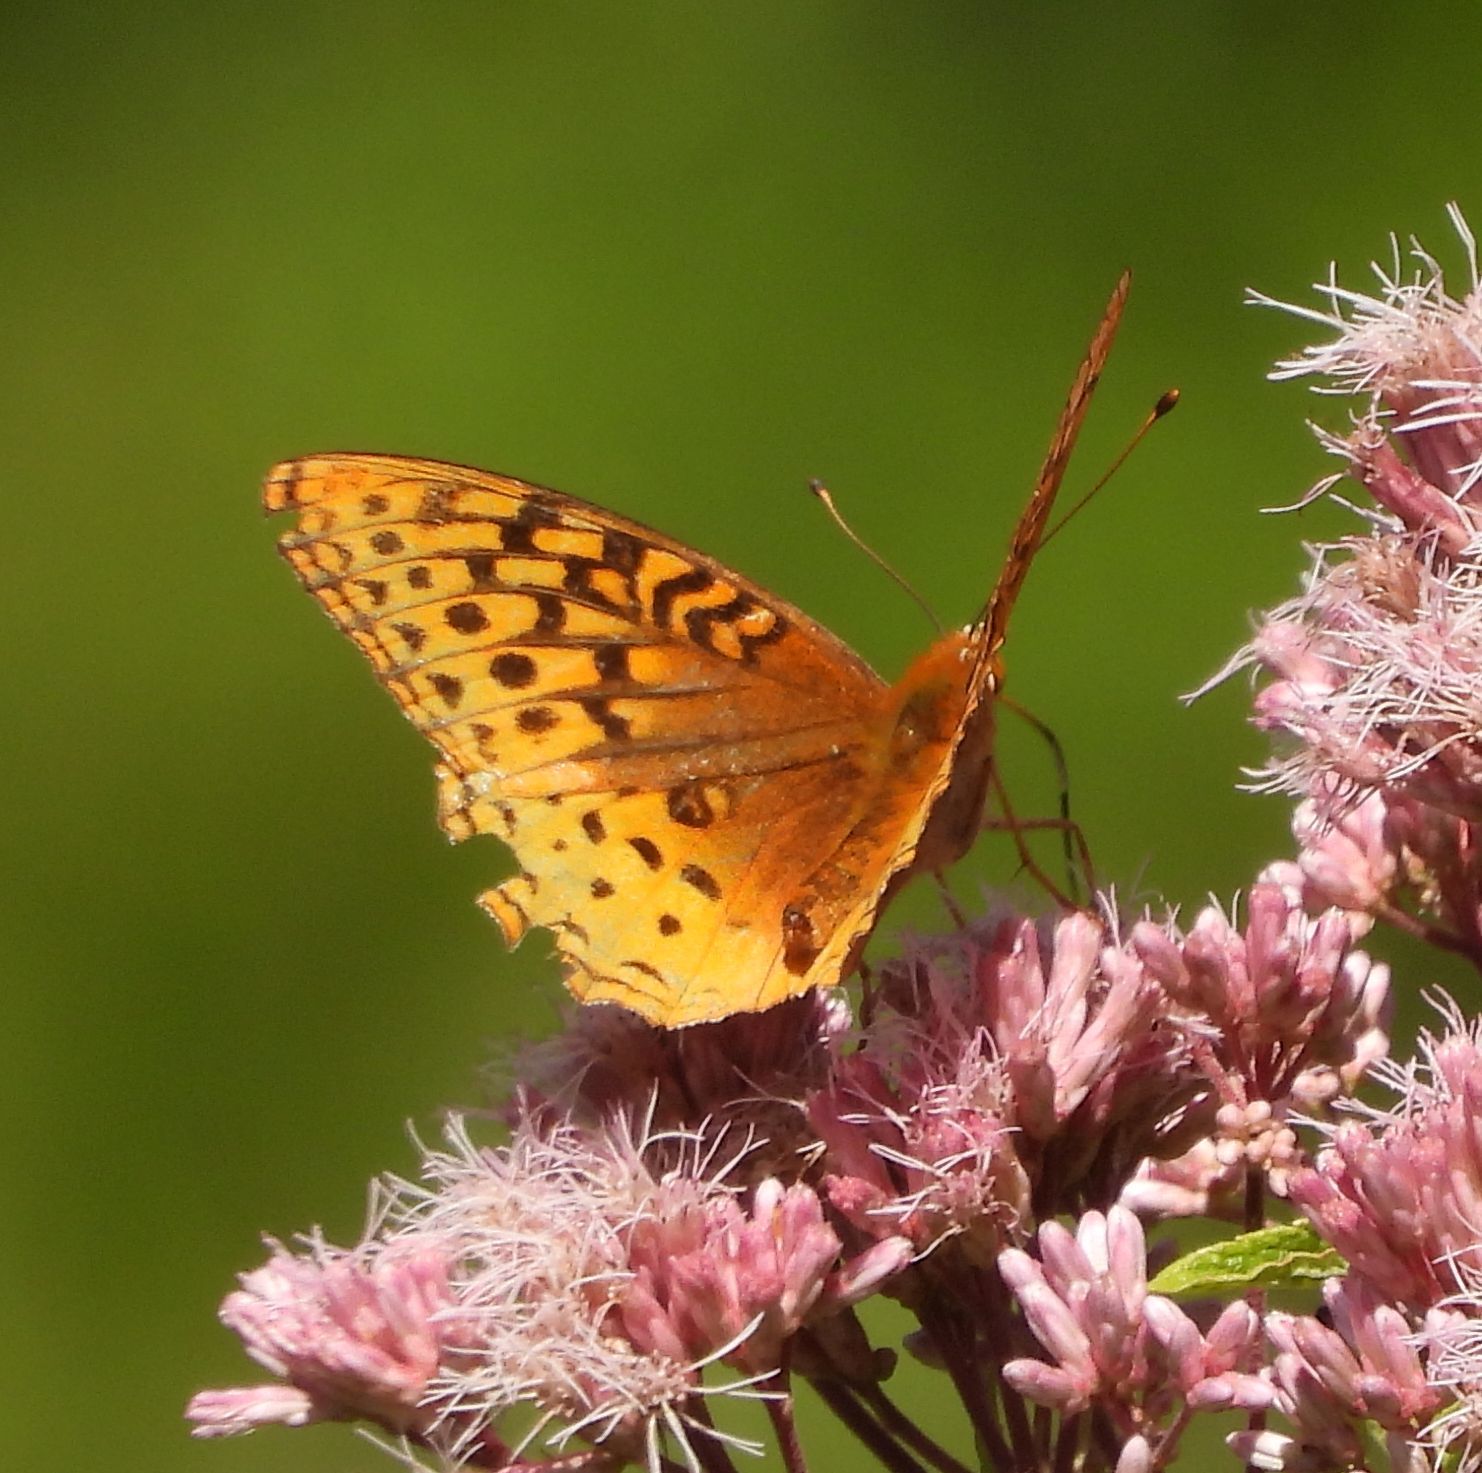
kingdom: Animalia
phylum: Arthropoda
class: Insecta
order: Lepidoptera
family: Nymphalidae
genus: Speyeria
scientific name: Speyeria cybele
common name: Great spangled fritillary
